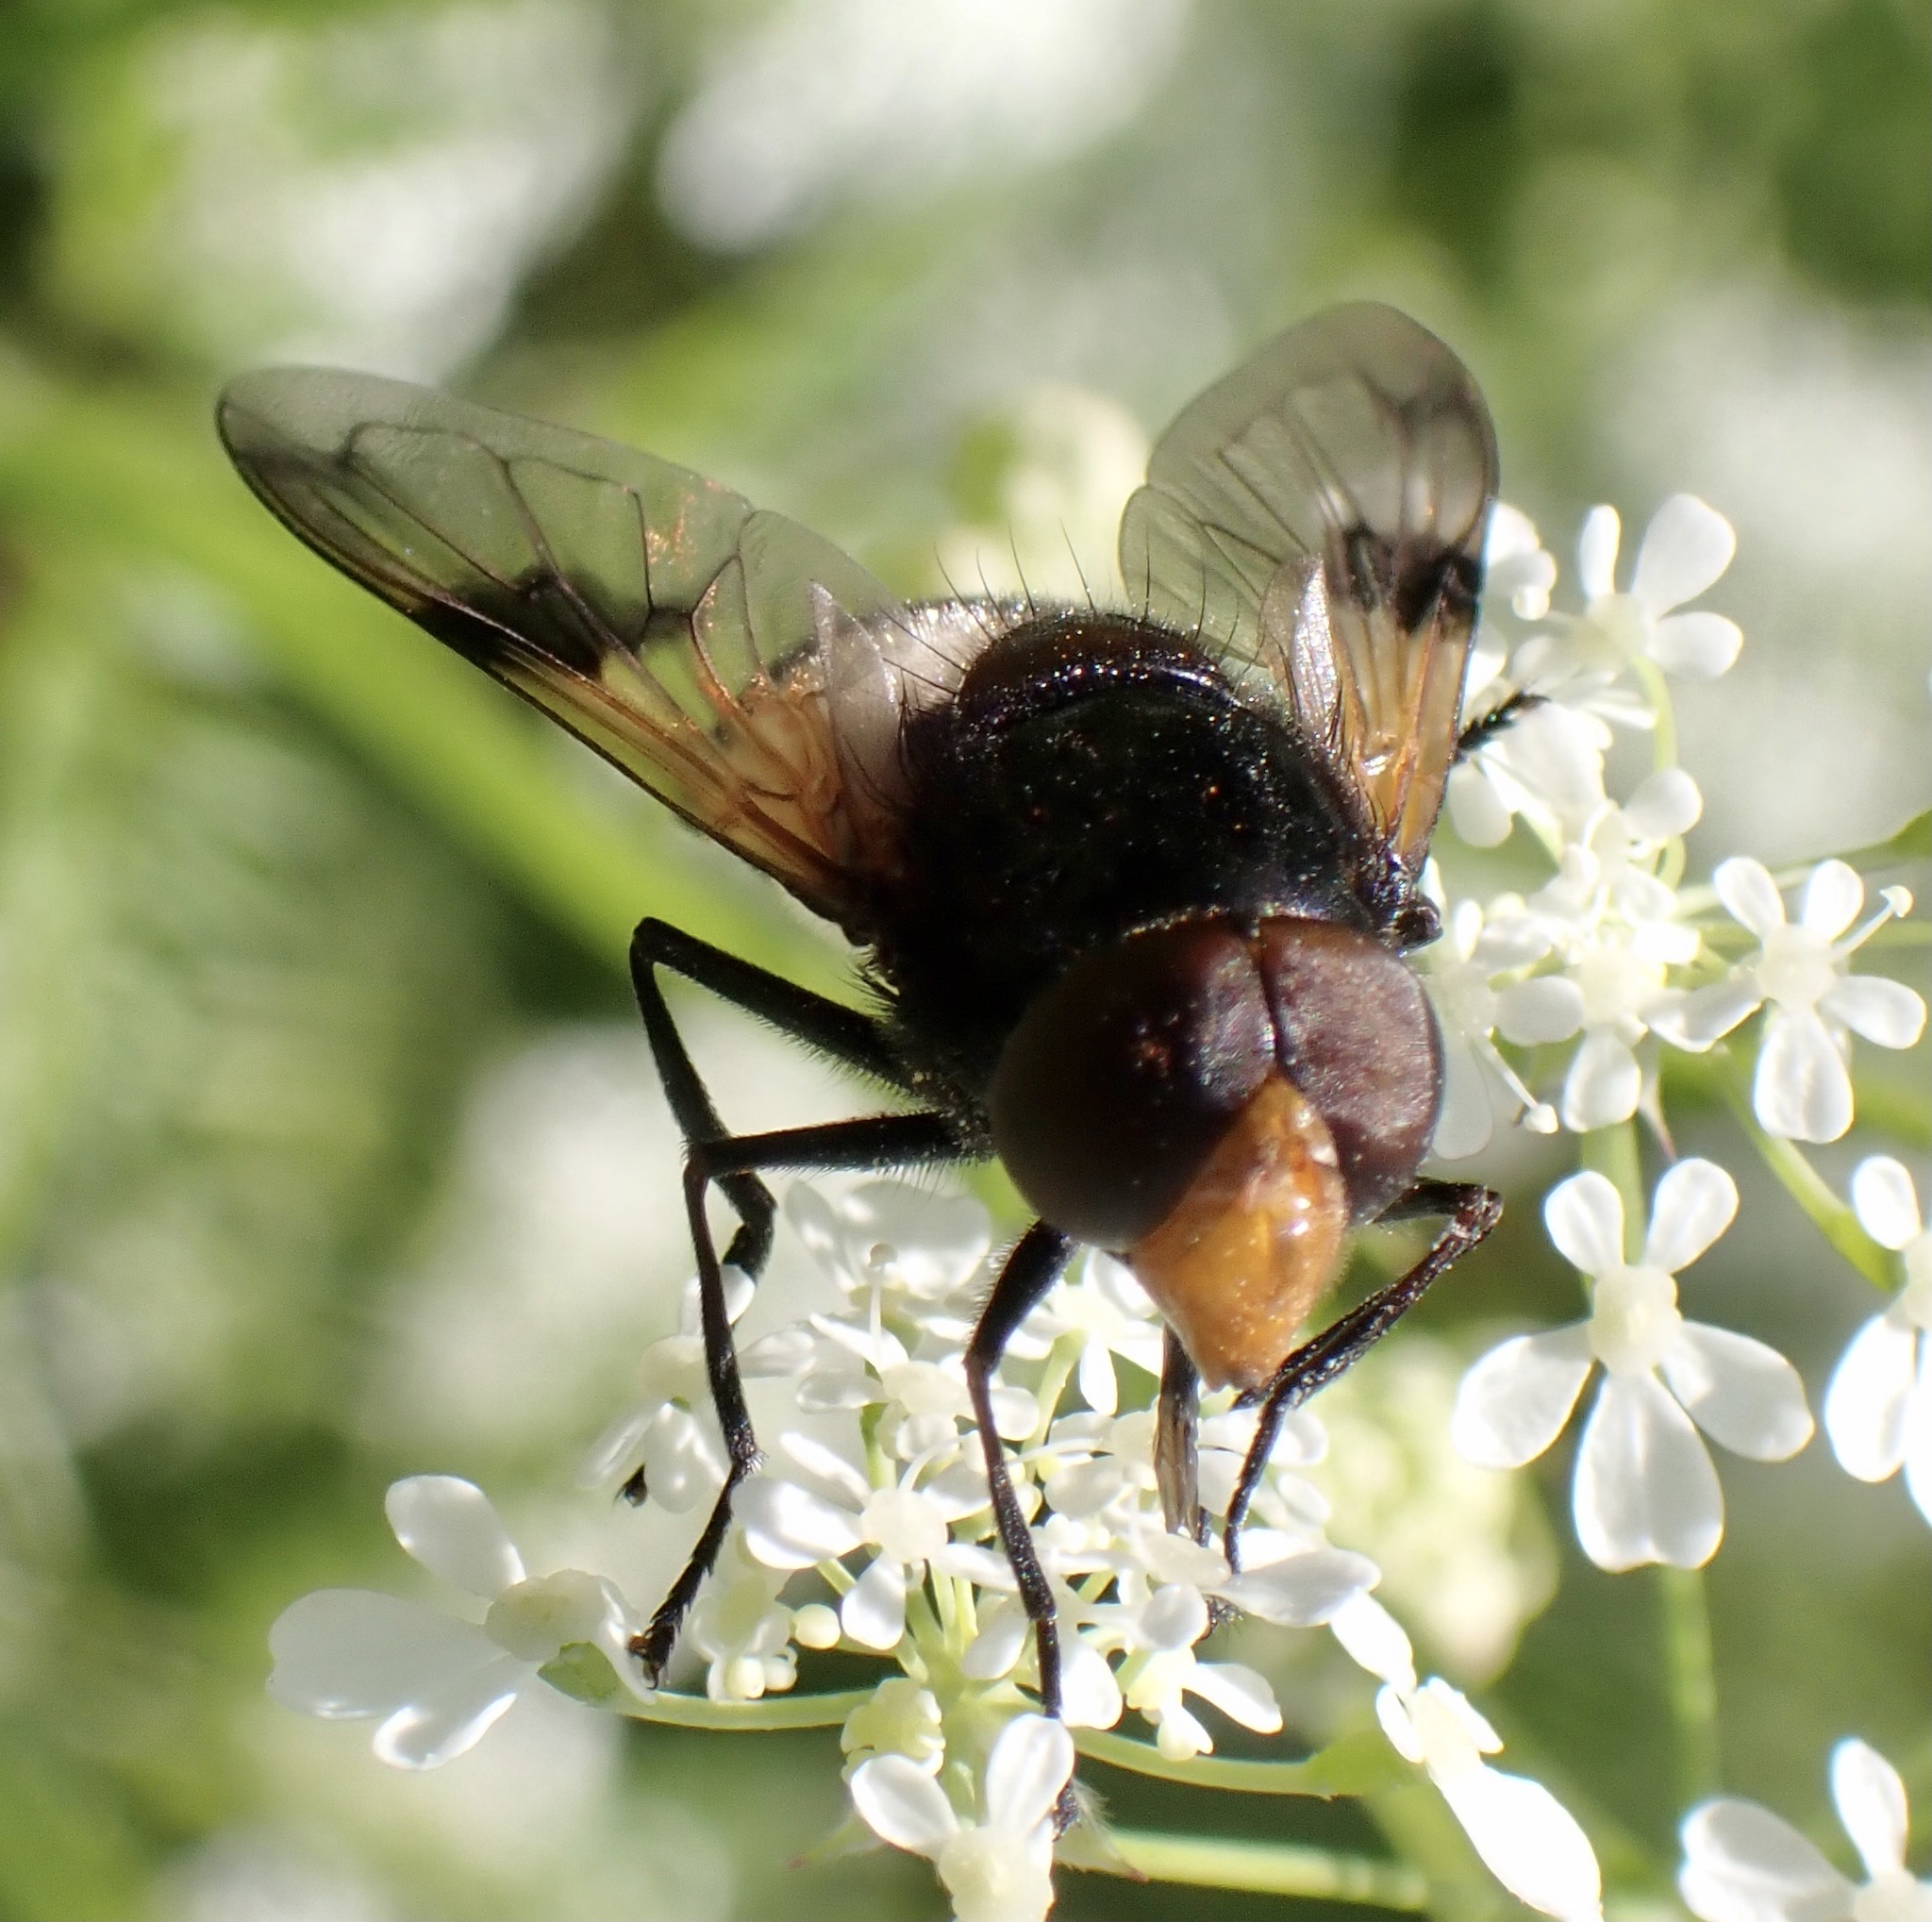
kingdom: Animalia
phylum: Arthropoda
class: Insecta
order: Diptera
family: Syrphidae
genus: Volucella
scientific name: Volucella pellucens
